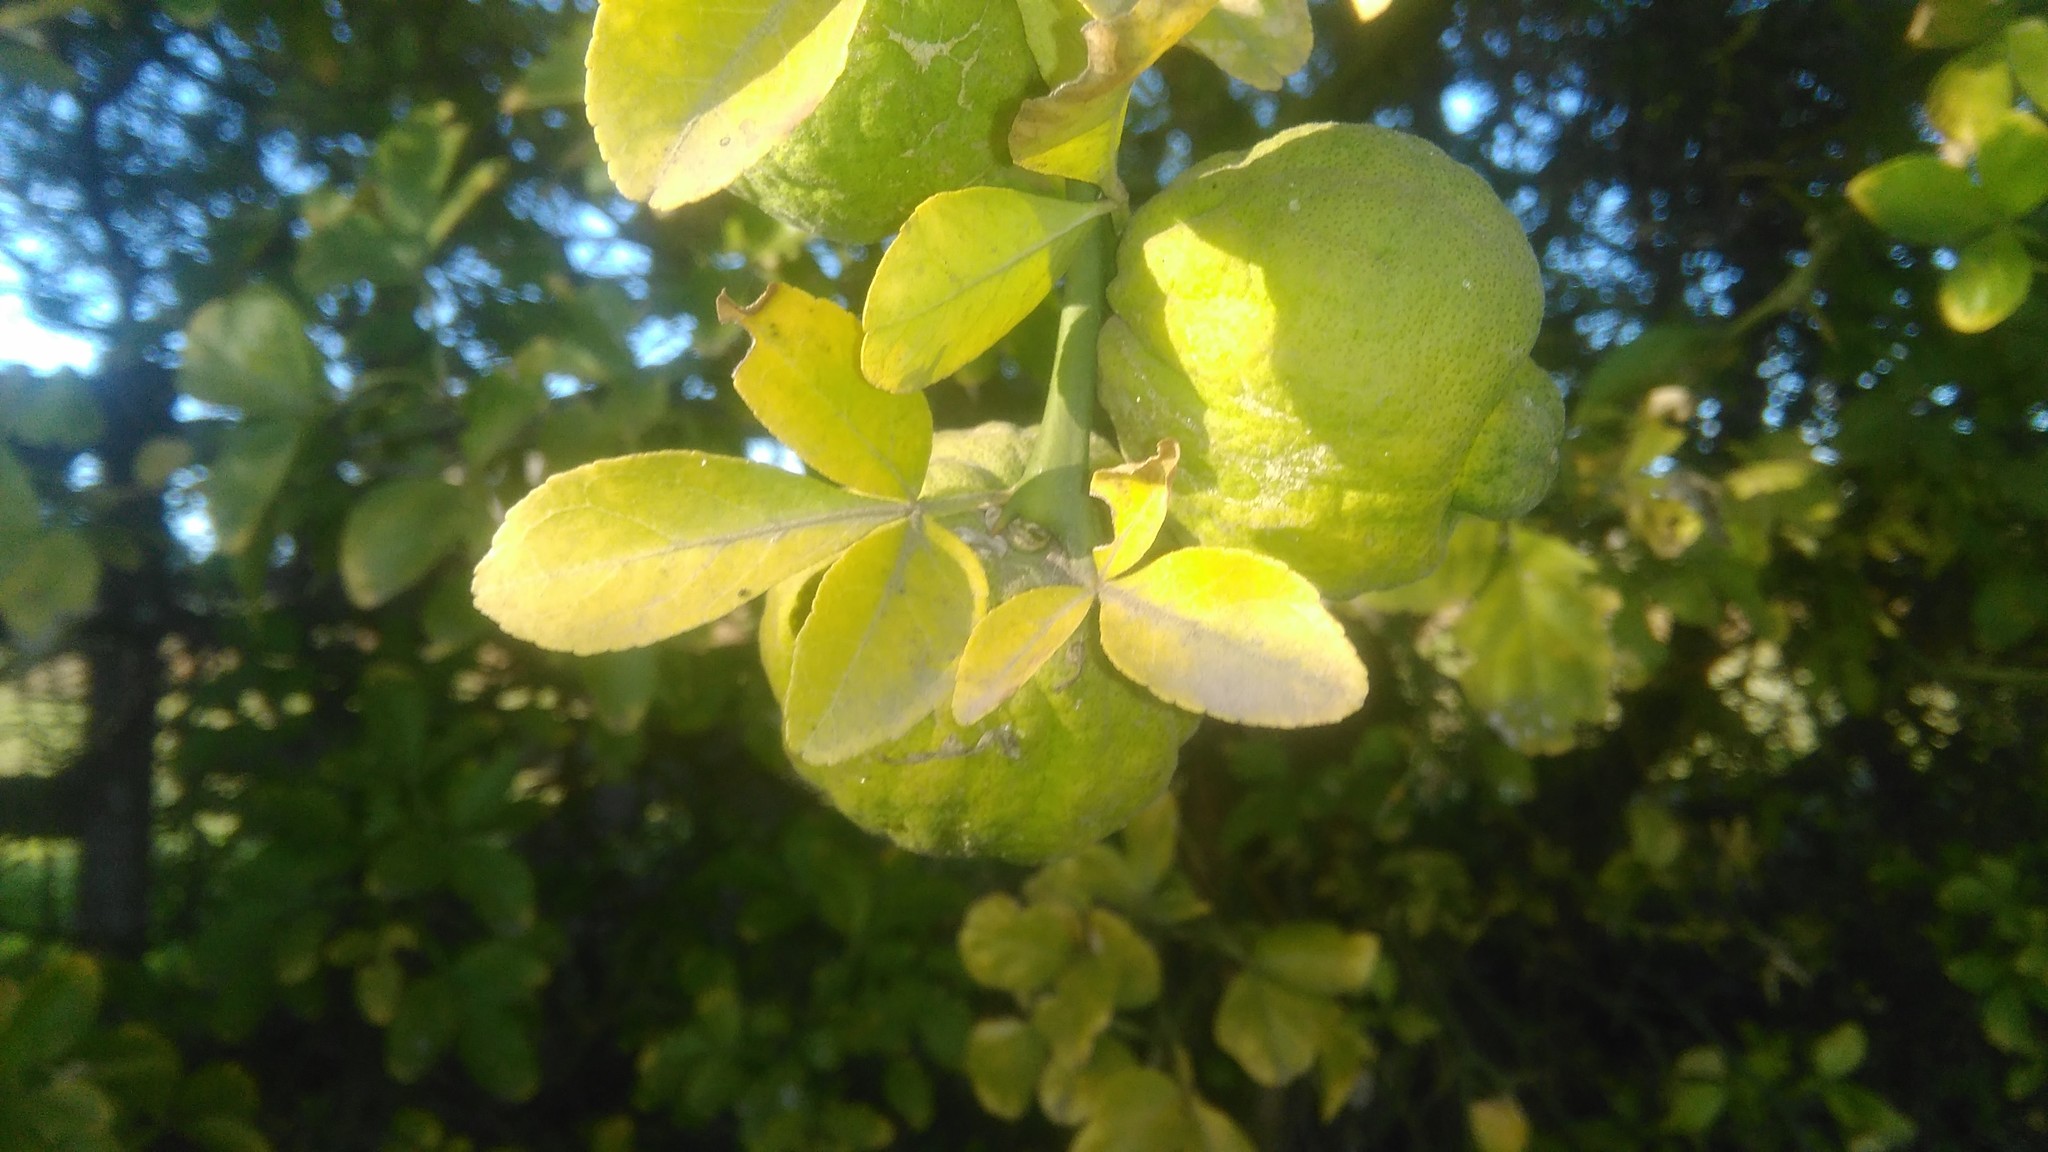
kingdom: Plantae
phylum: Tracheophyta
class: Magnoliopsida
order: Sapindales
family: Rutaceae
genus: Citrus
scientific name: Citrus trifoliata
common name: Japanese bitter-orange
